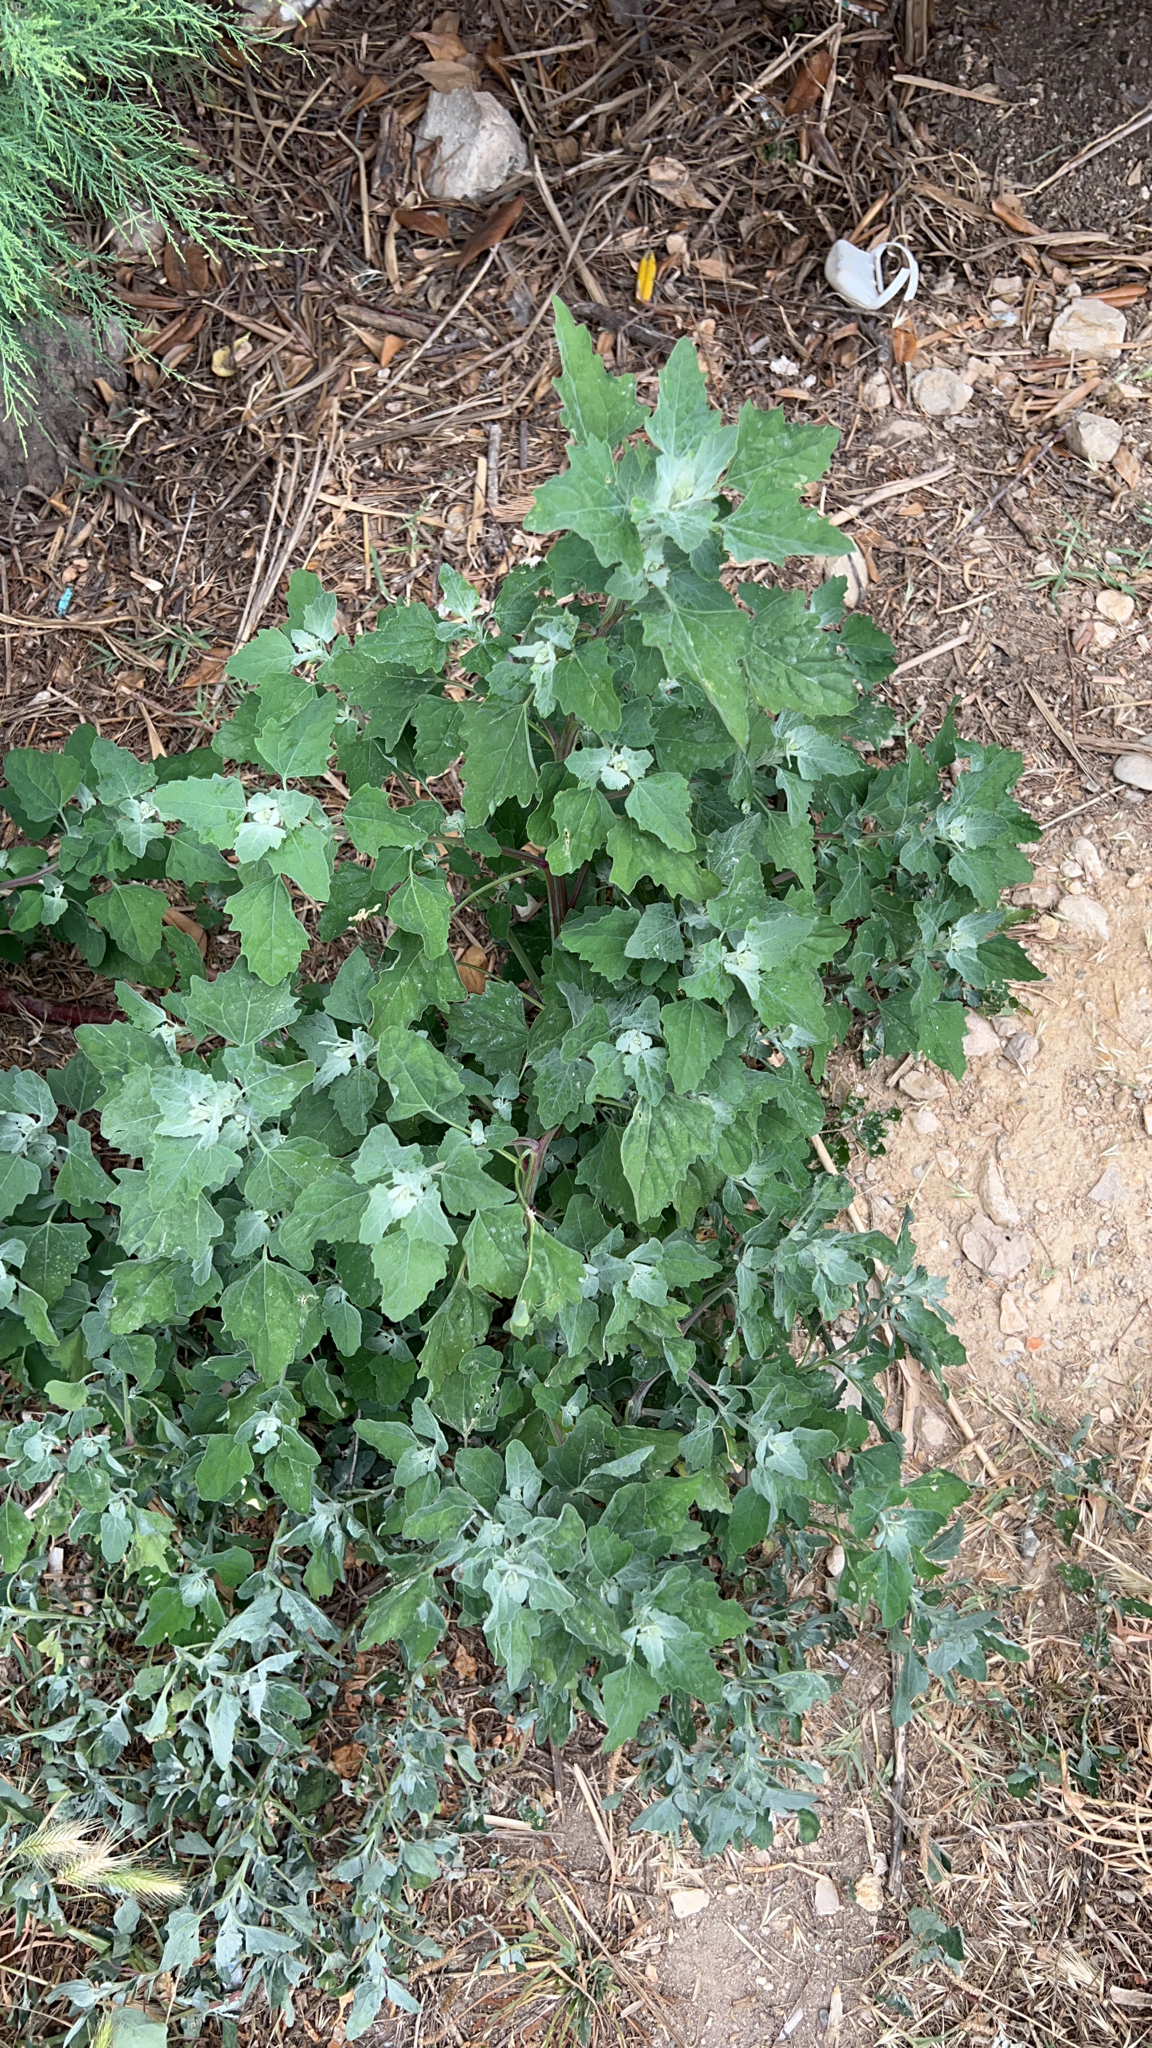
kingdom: Plantae
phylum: Tracheophyta
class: Magnoliopsida
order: Caryophyllales
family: Amaranthaceae
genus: Chenopodium
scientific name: Chenopodium album
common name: Fat-hen
